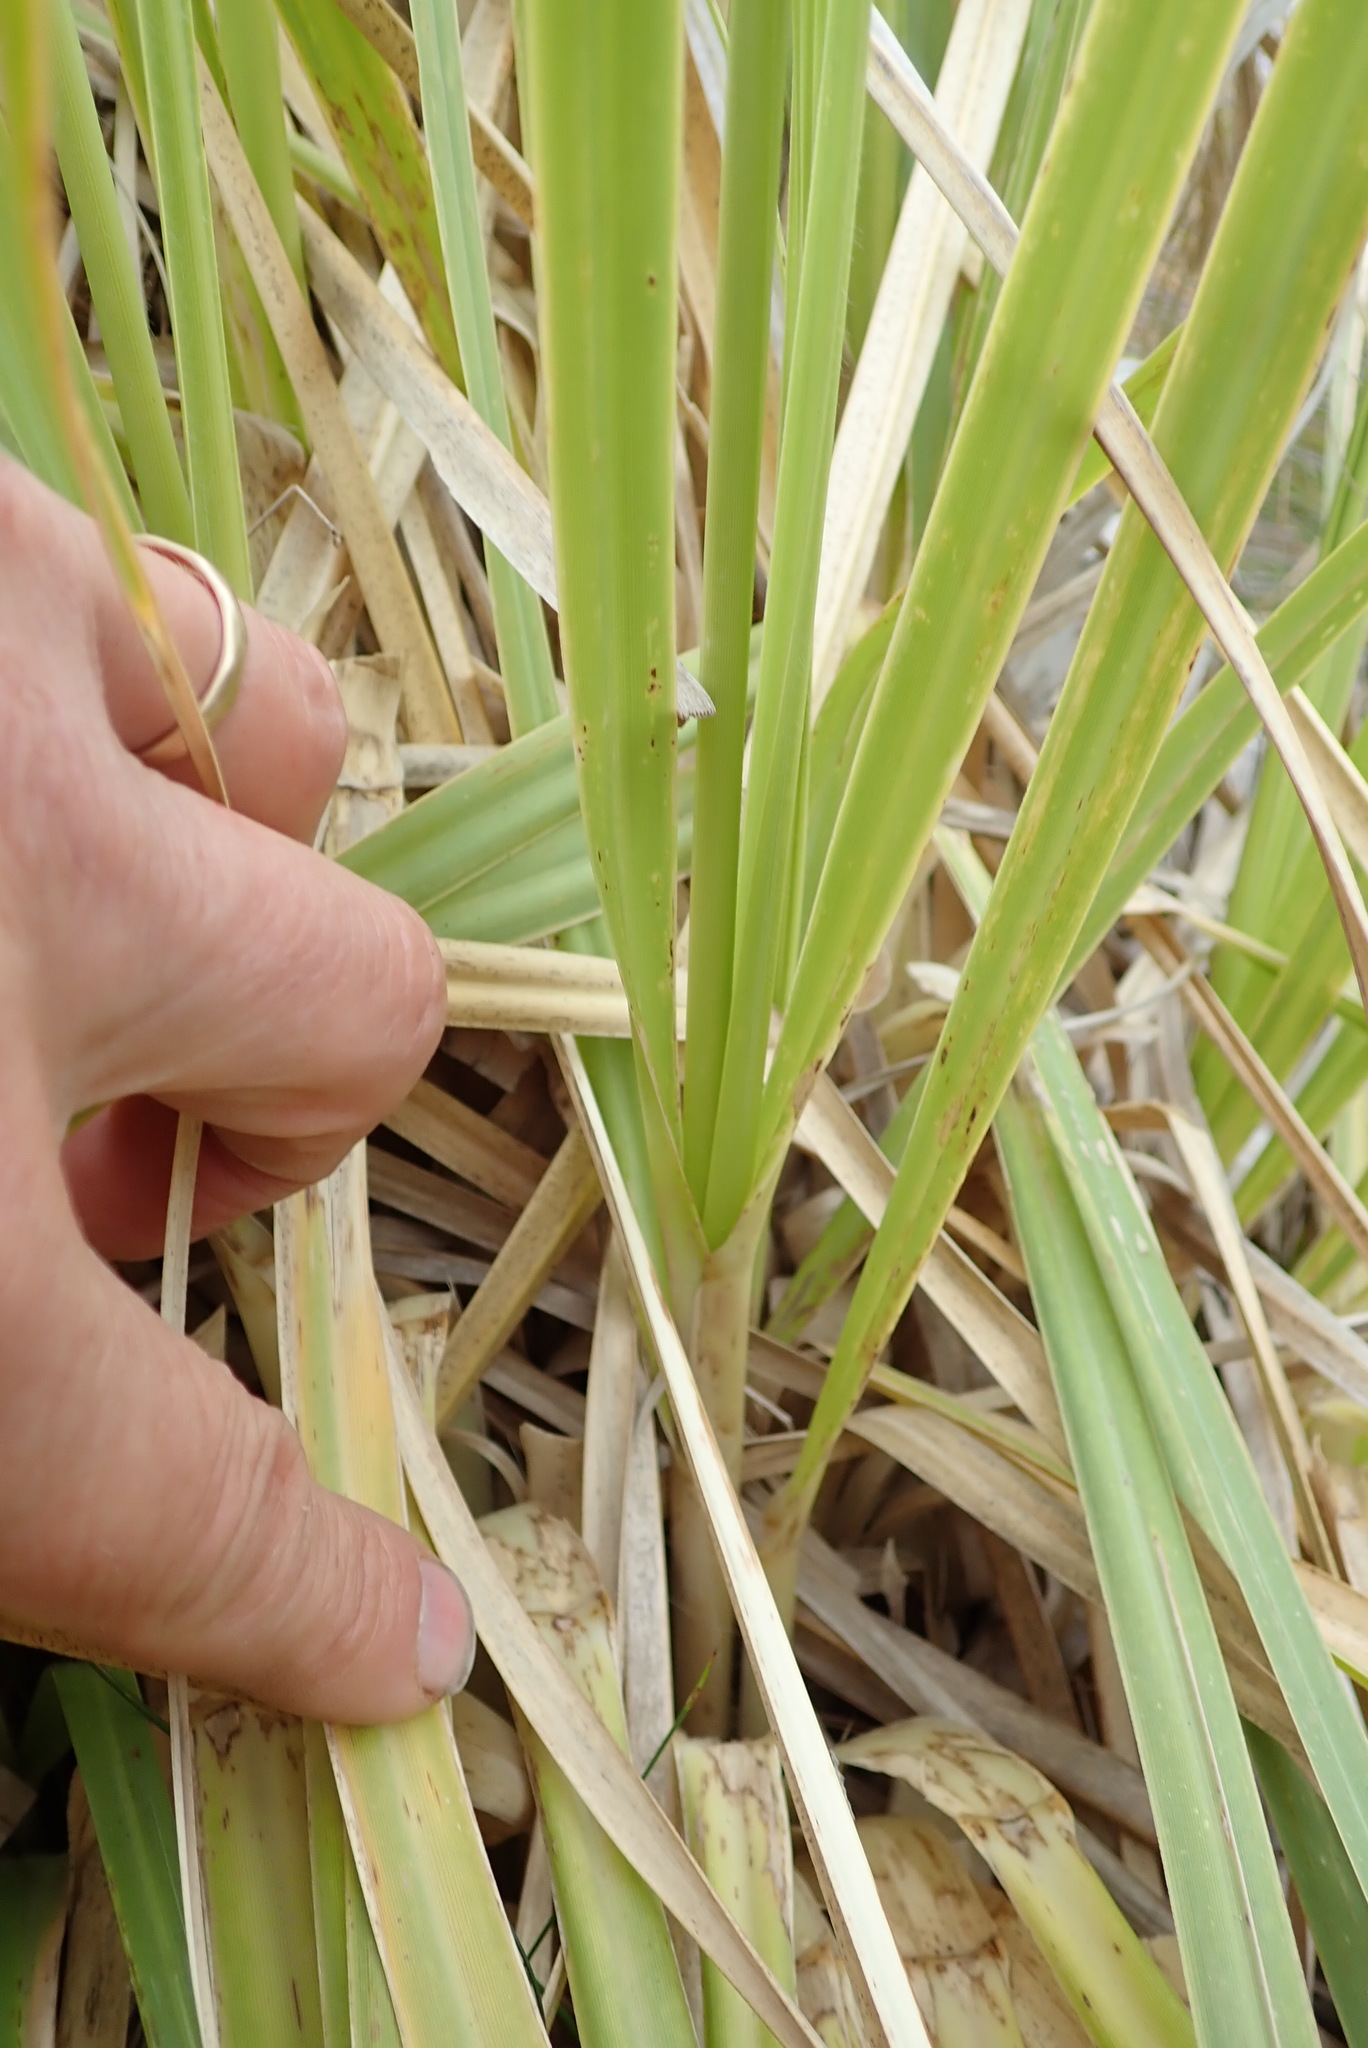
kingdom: Plantae
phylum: Tracheophyta
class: Liliopsida
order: Poales
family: Poaceae
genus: Cortaderia
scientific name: Cortaderia selloana
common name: Uruguayan pampas grass
